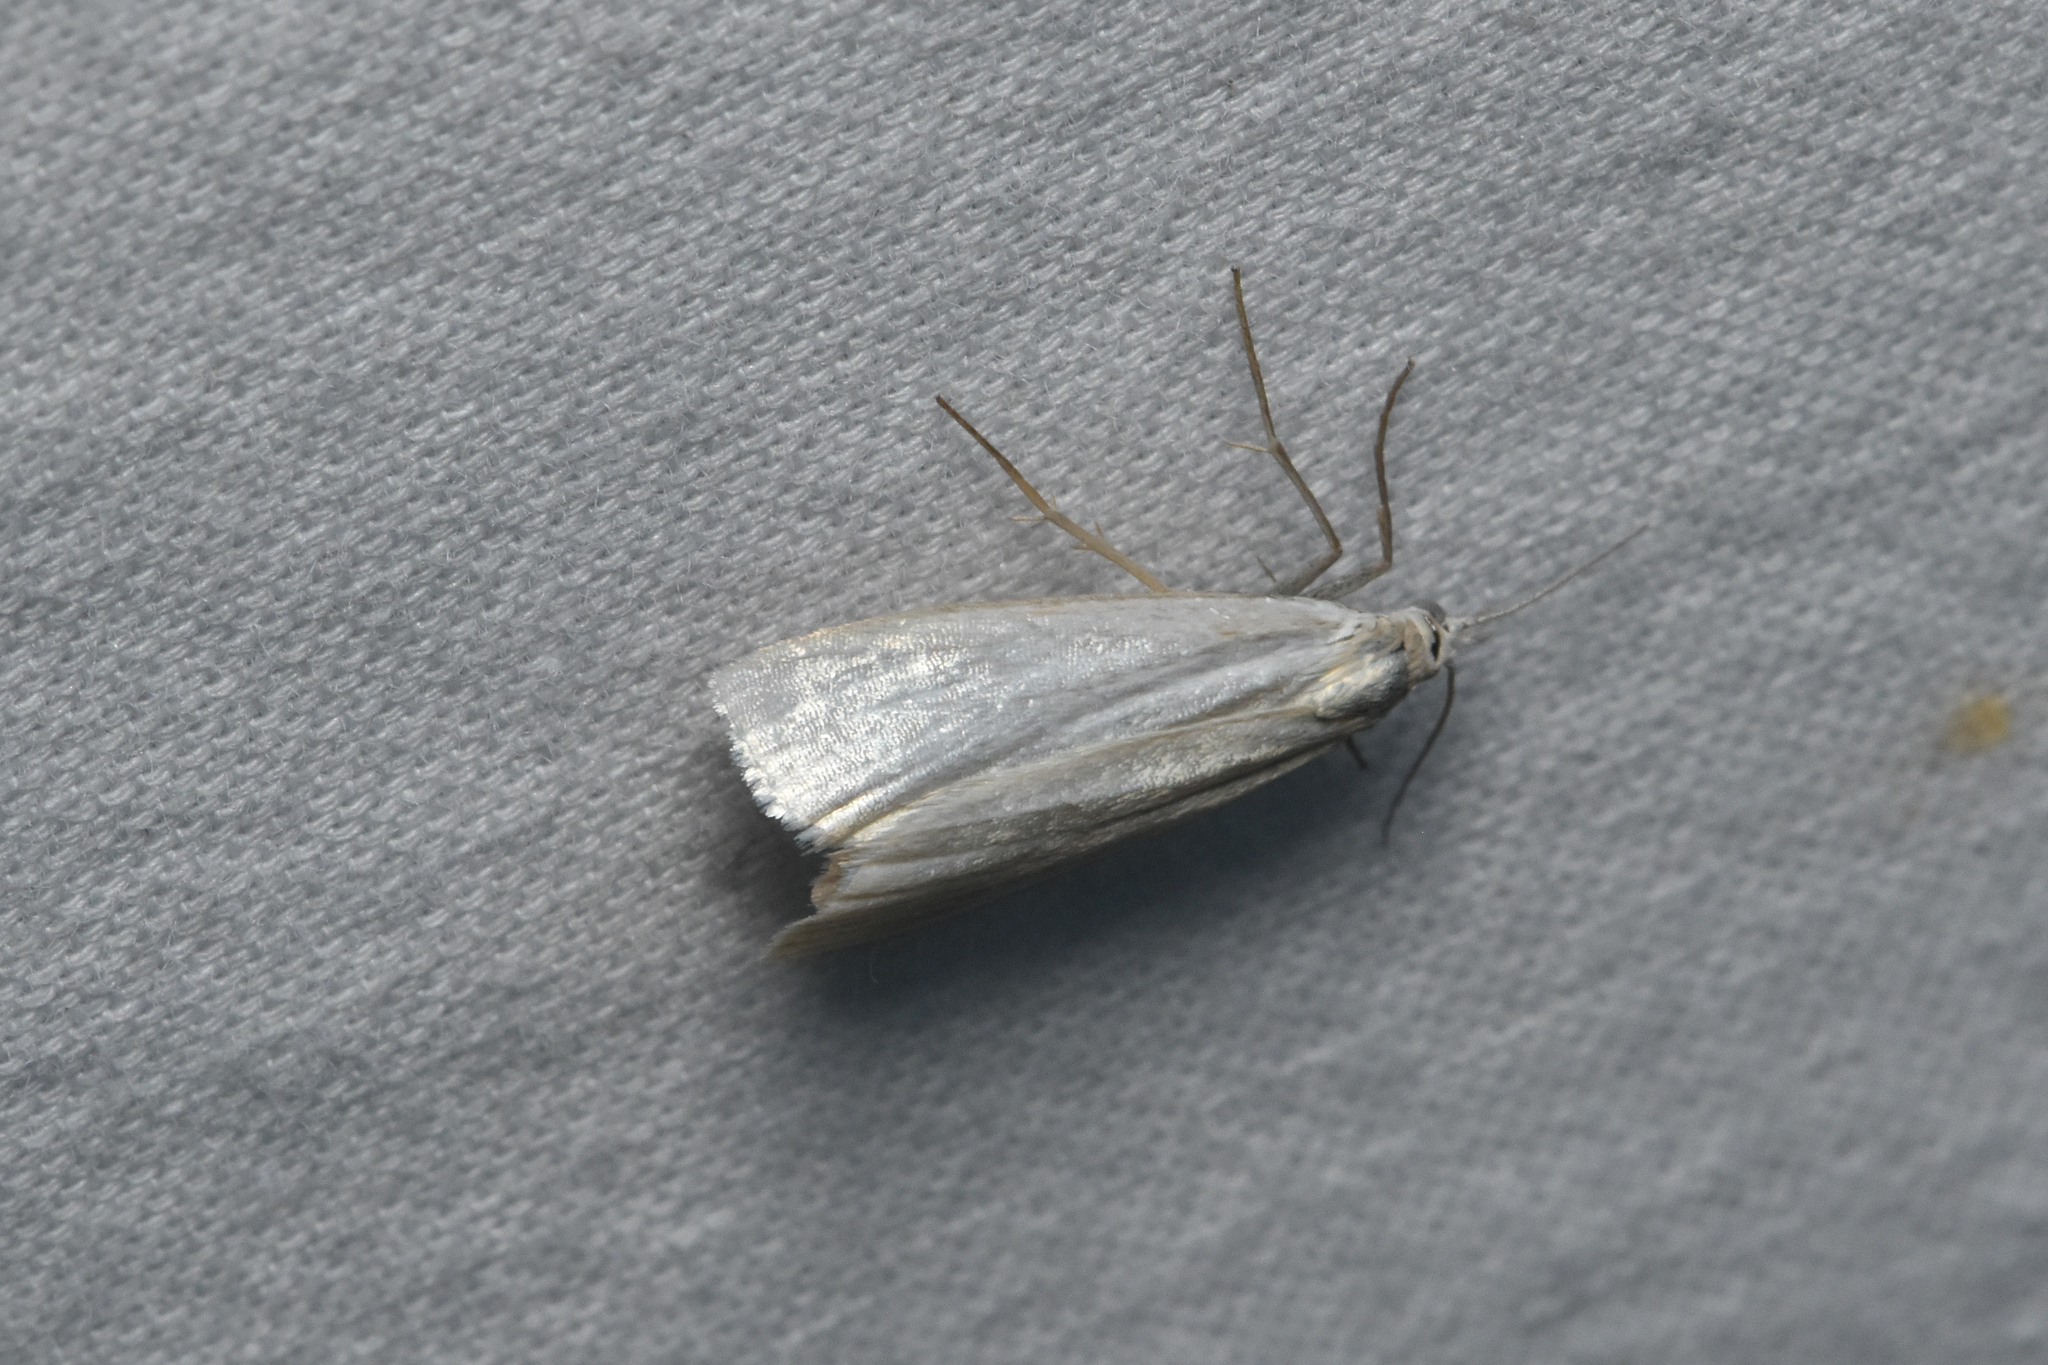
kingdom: Animalia
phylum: Arthropoda
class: Insecta
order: Lepidoptera
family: Crambidae
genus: Crambus
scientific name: Crambus perlellus
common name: Yellow satin veneer
